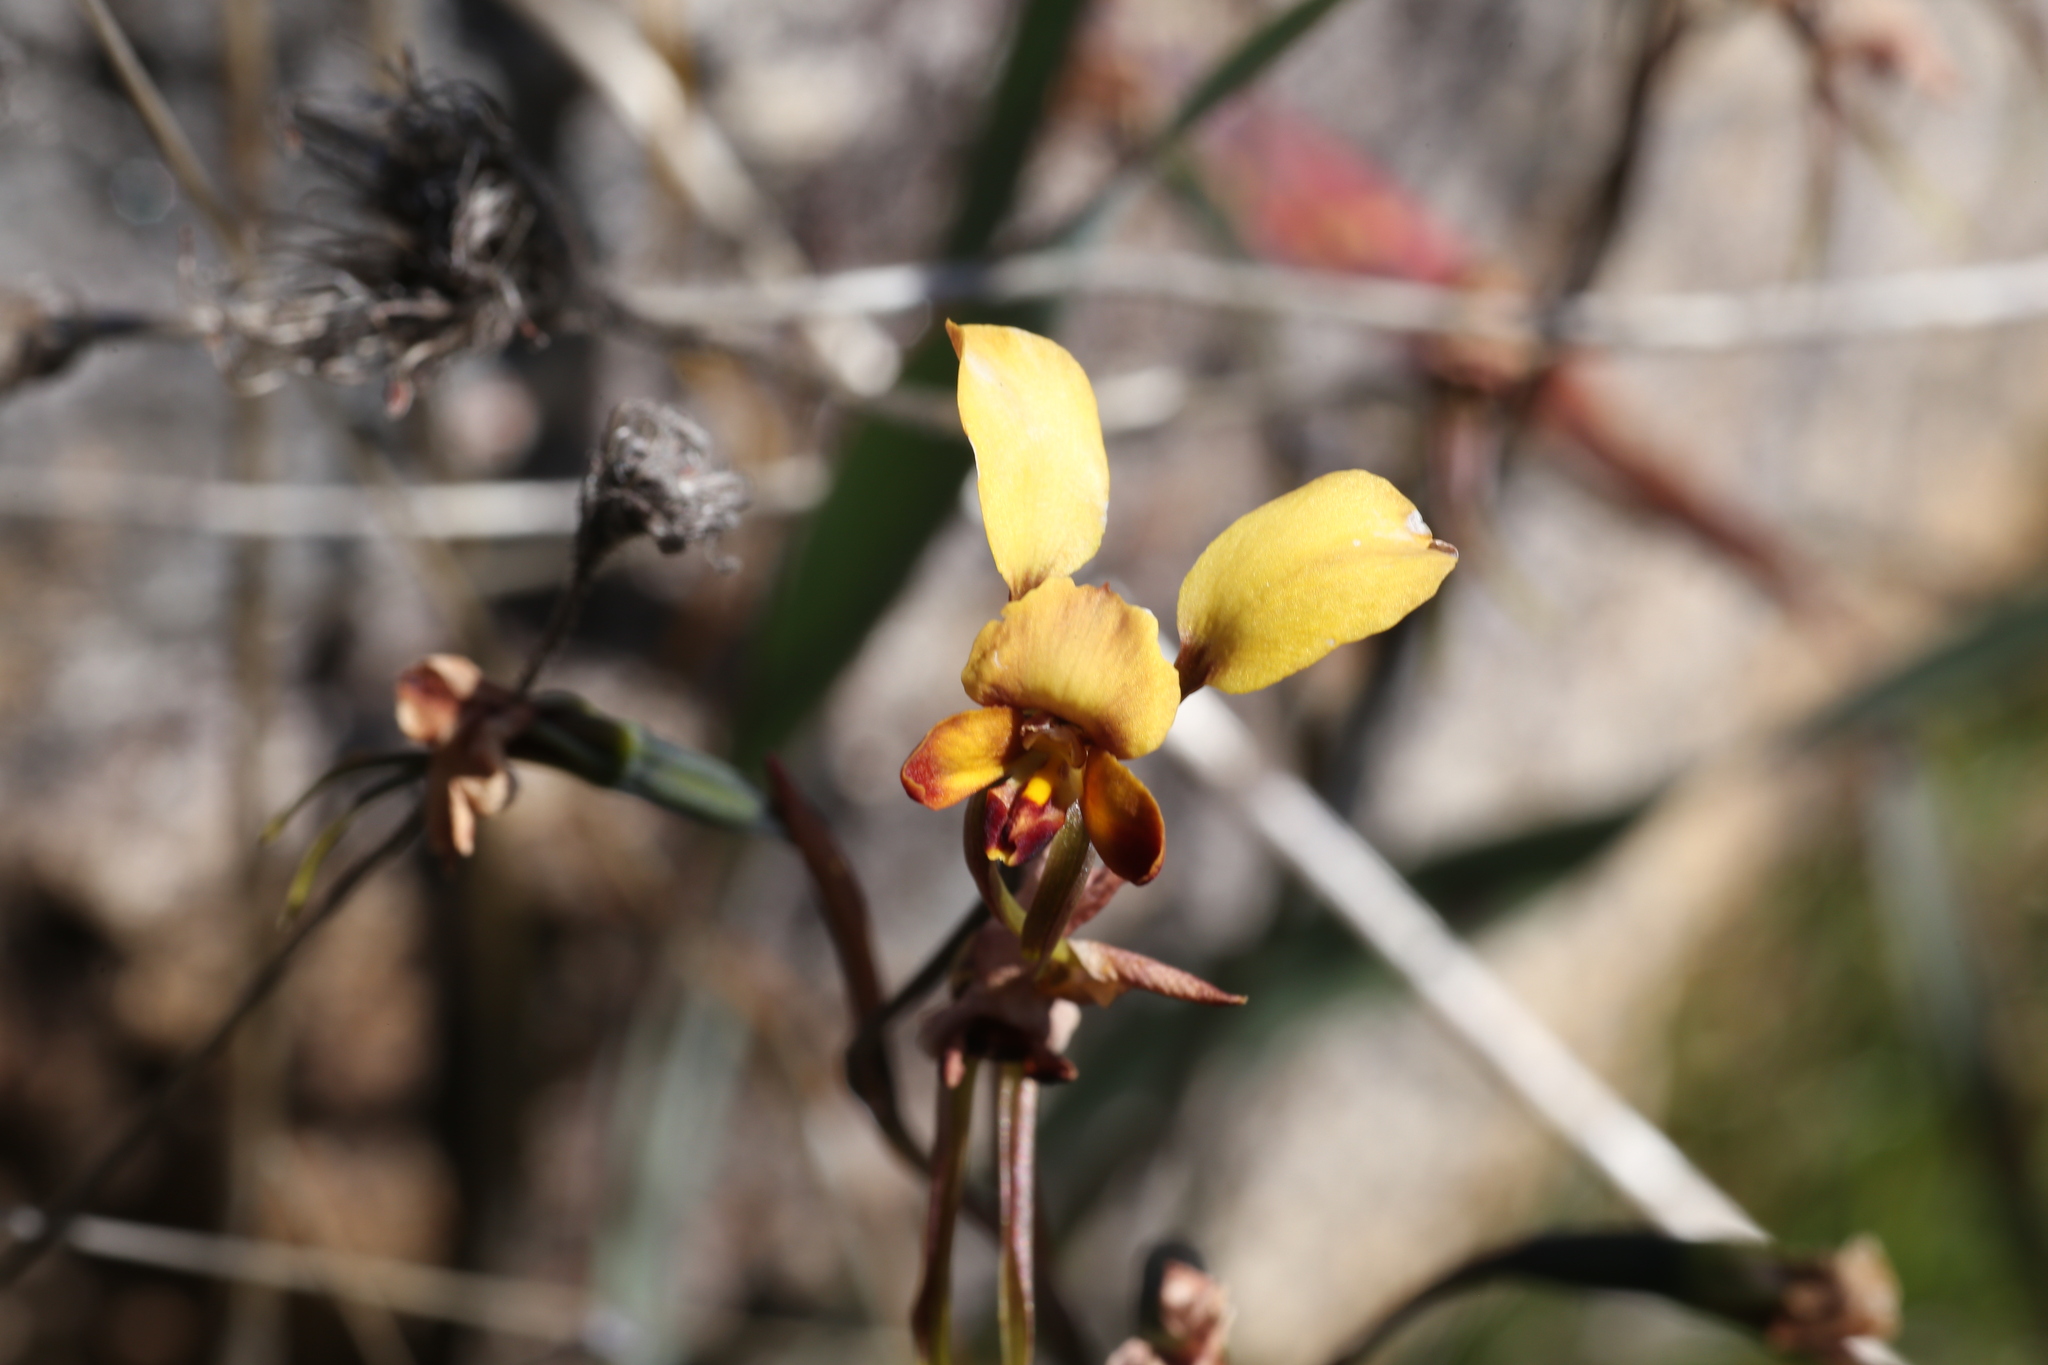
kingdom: Plantae
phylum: Tracheophyta
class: Liliopsida
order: Asparagales
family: Orchidaceae
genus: Diuris
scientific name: Diuris porrifolia
